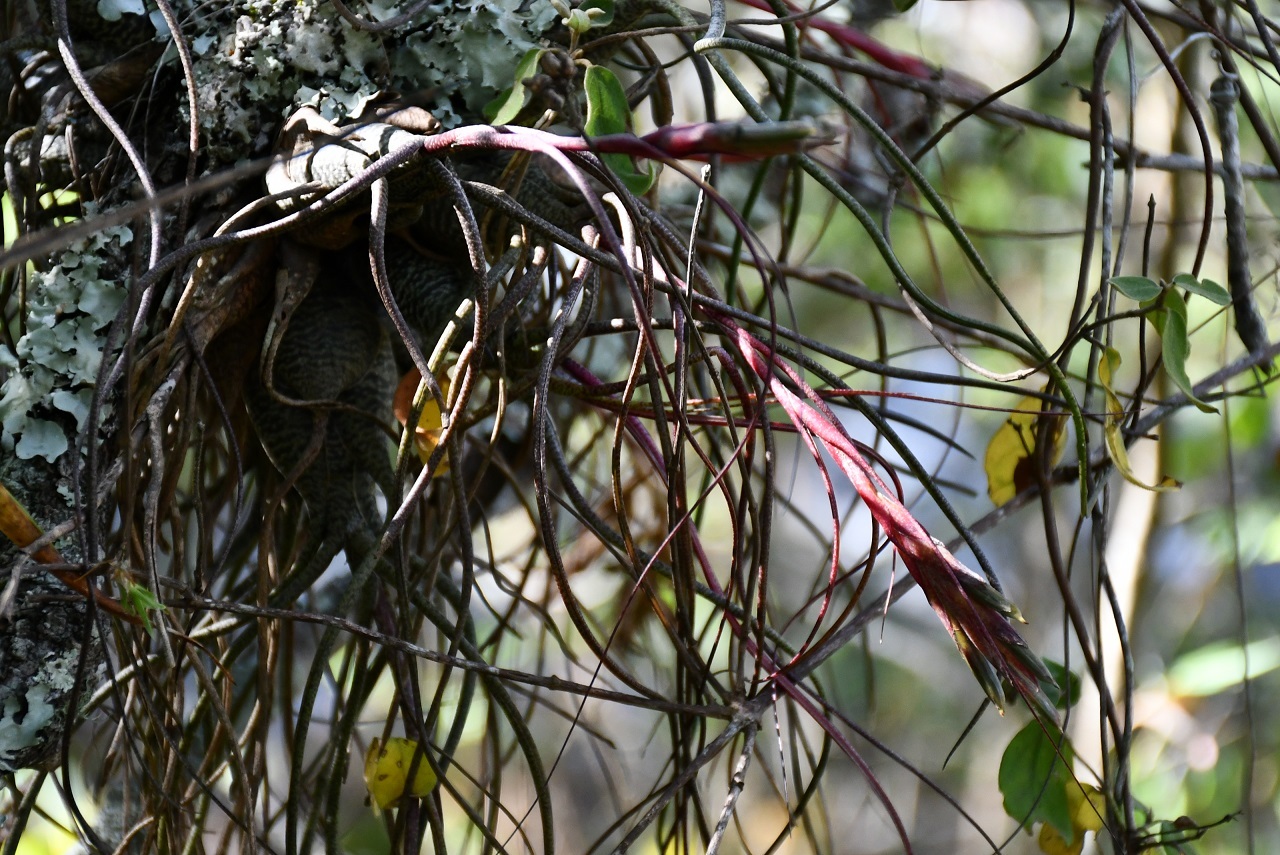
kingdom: Plantae
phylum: Tracheophyta
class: Liliopsida
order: Poales
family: Bromeliaceae
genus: Tillandsia
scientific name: Tillandsia butzii
